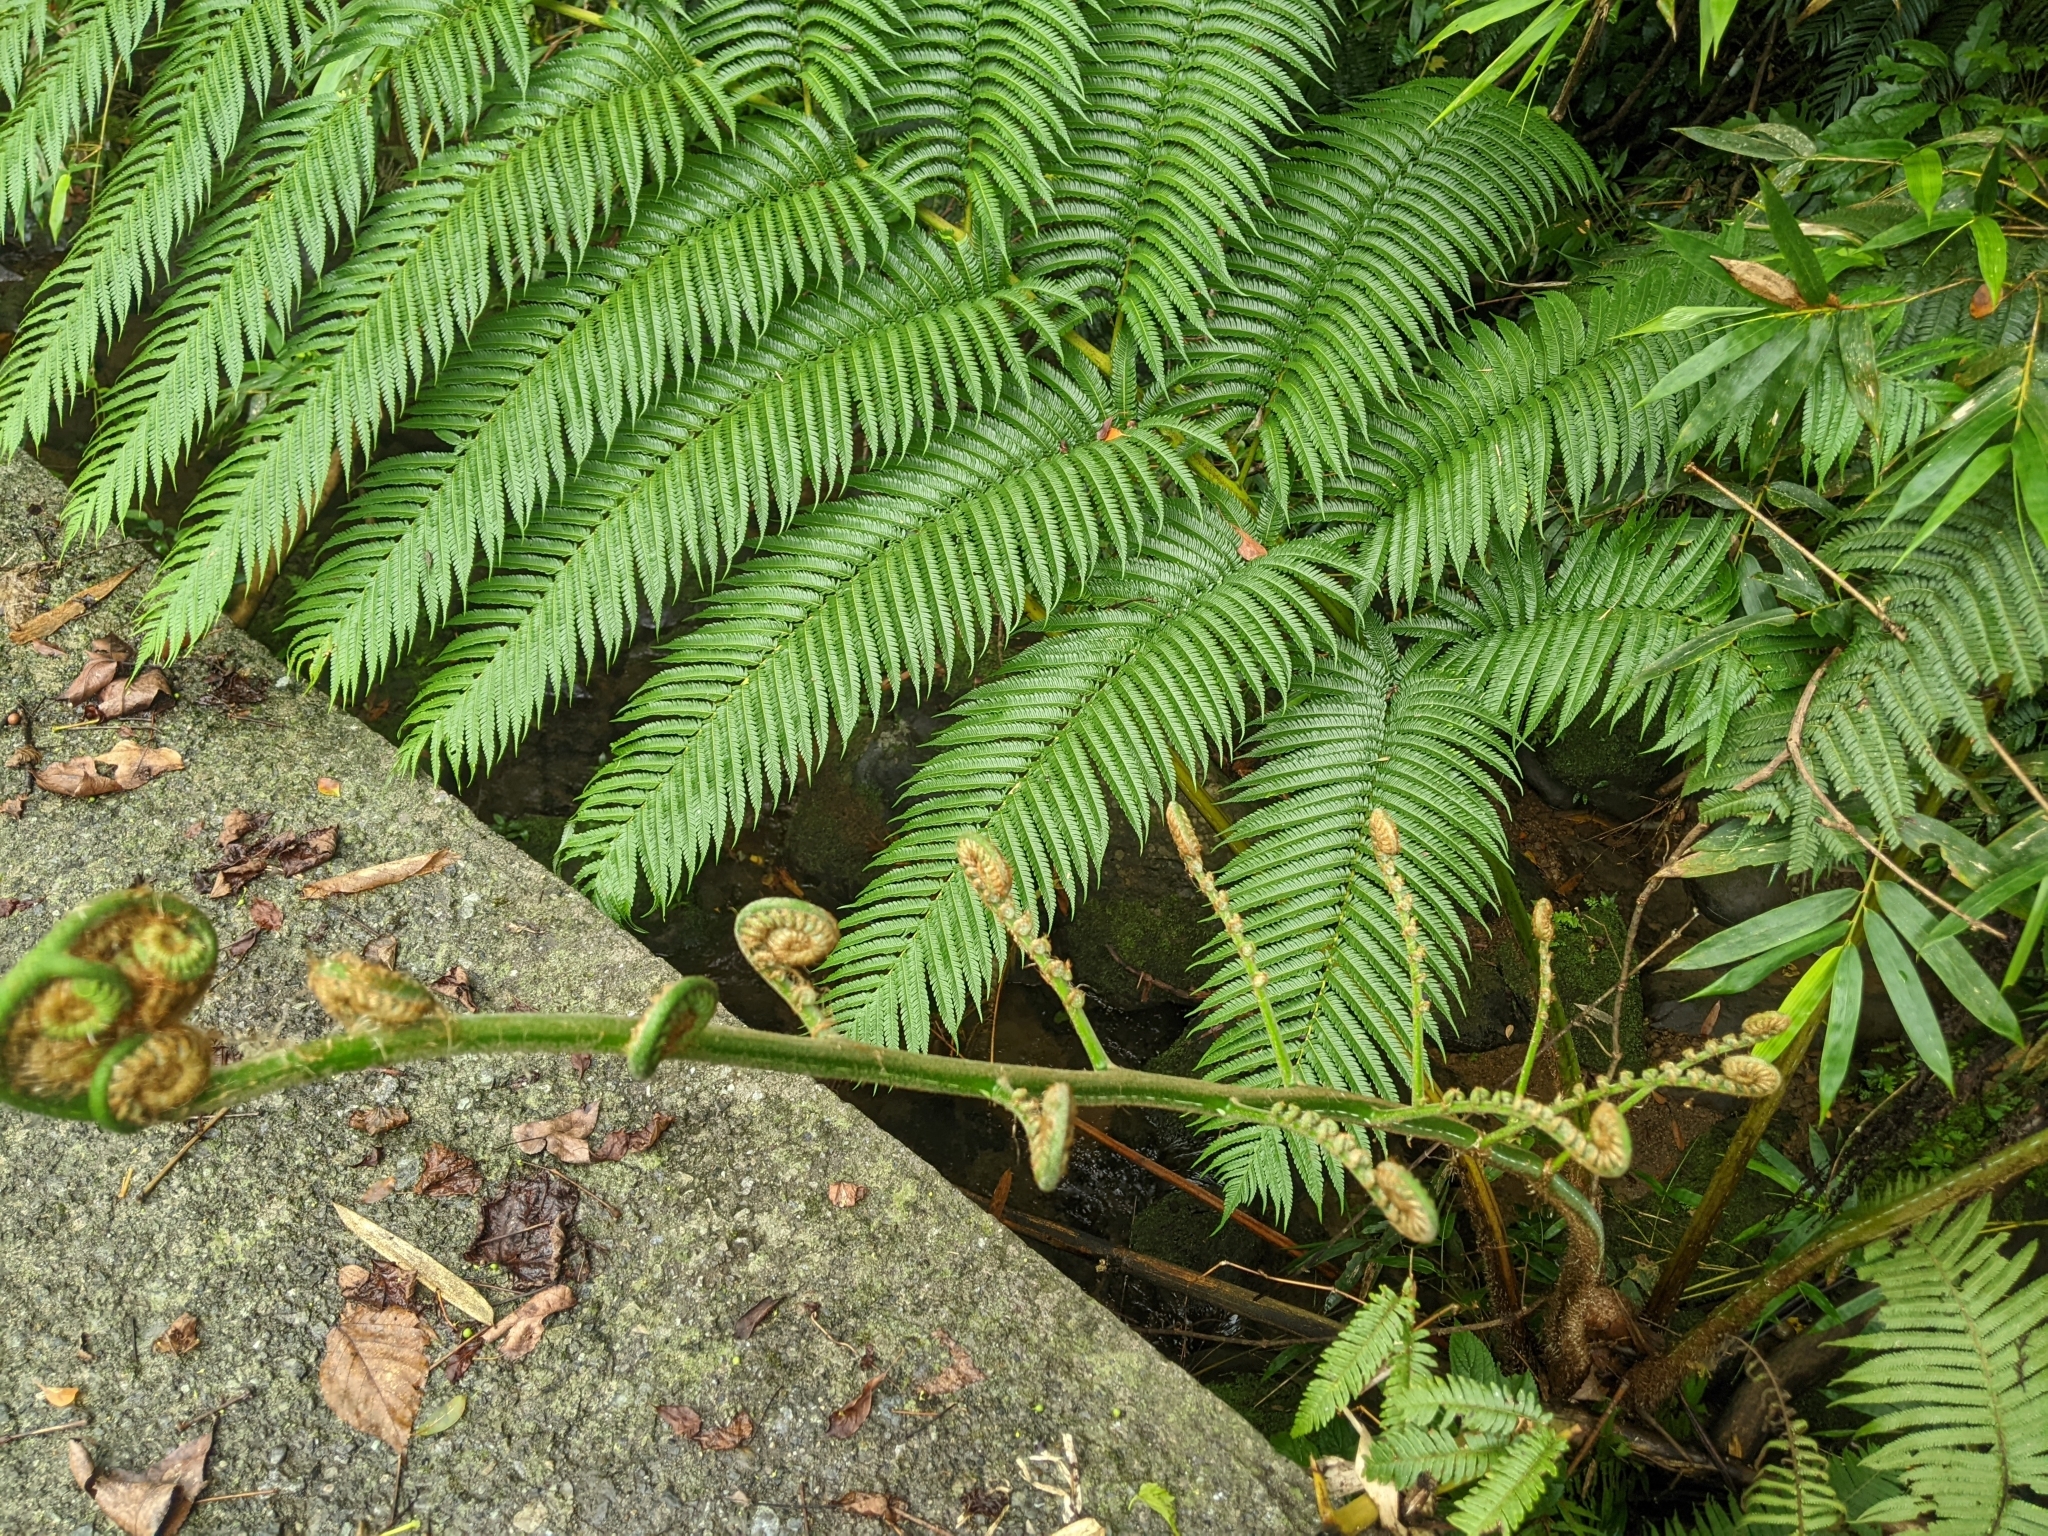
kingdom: Plantae
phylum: Tracheophyta
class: Polypodiopsida
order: Cyatheales
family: Cyatheaceae
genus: Alsophila
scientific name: Alsophila lepifera
